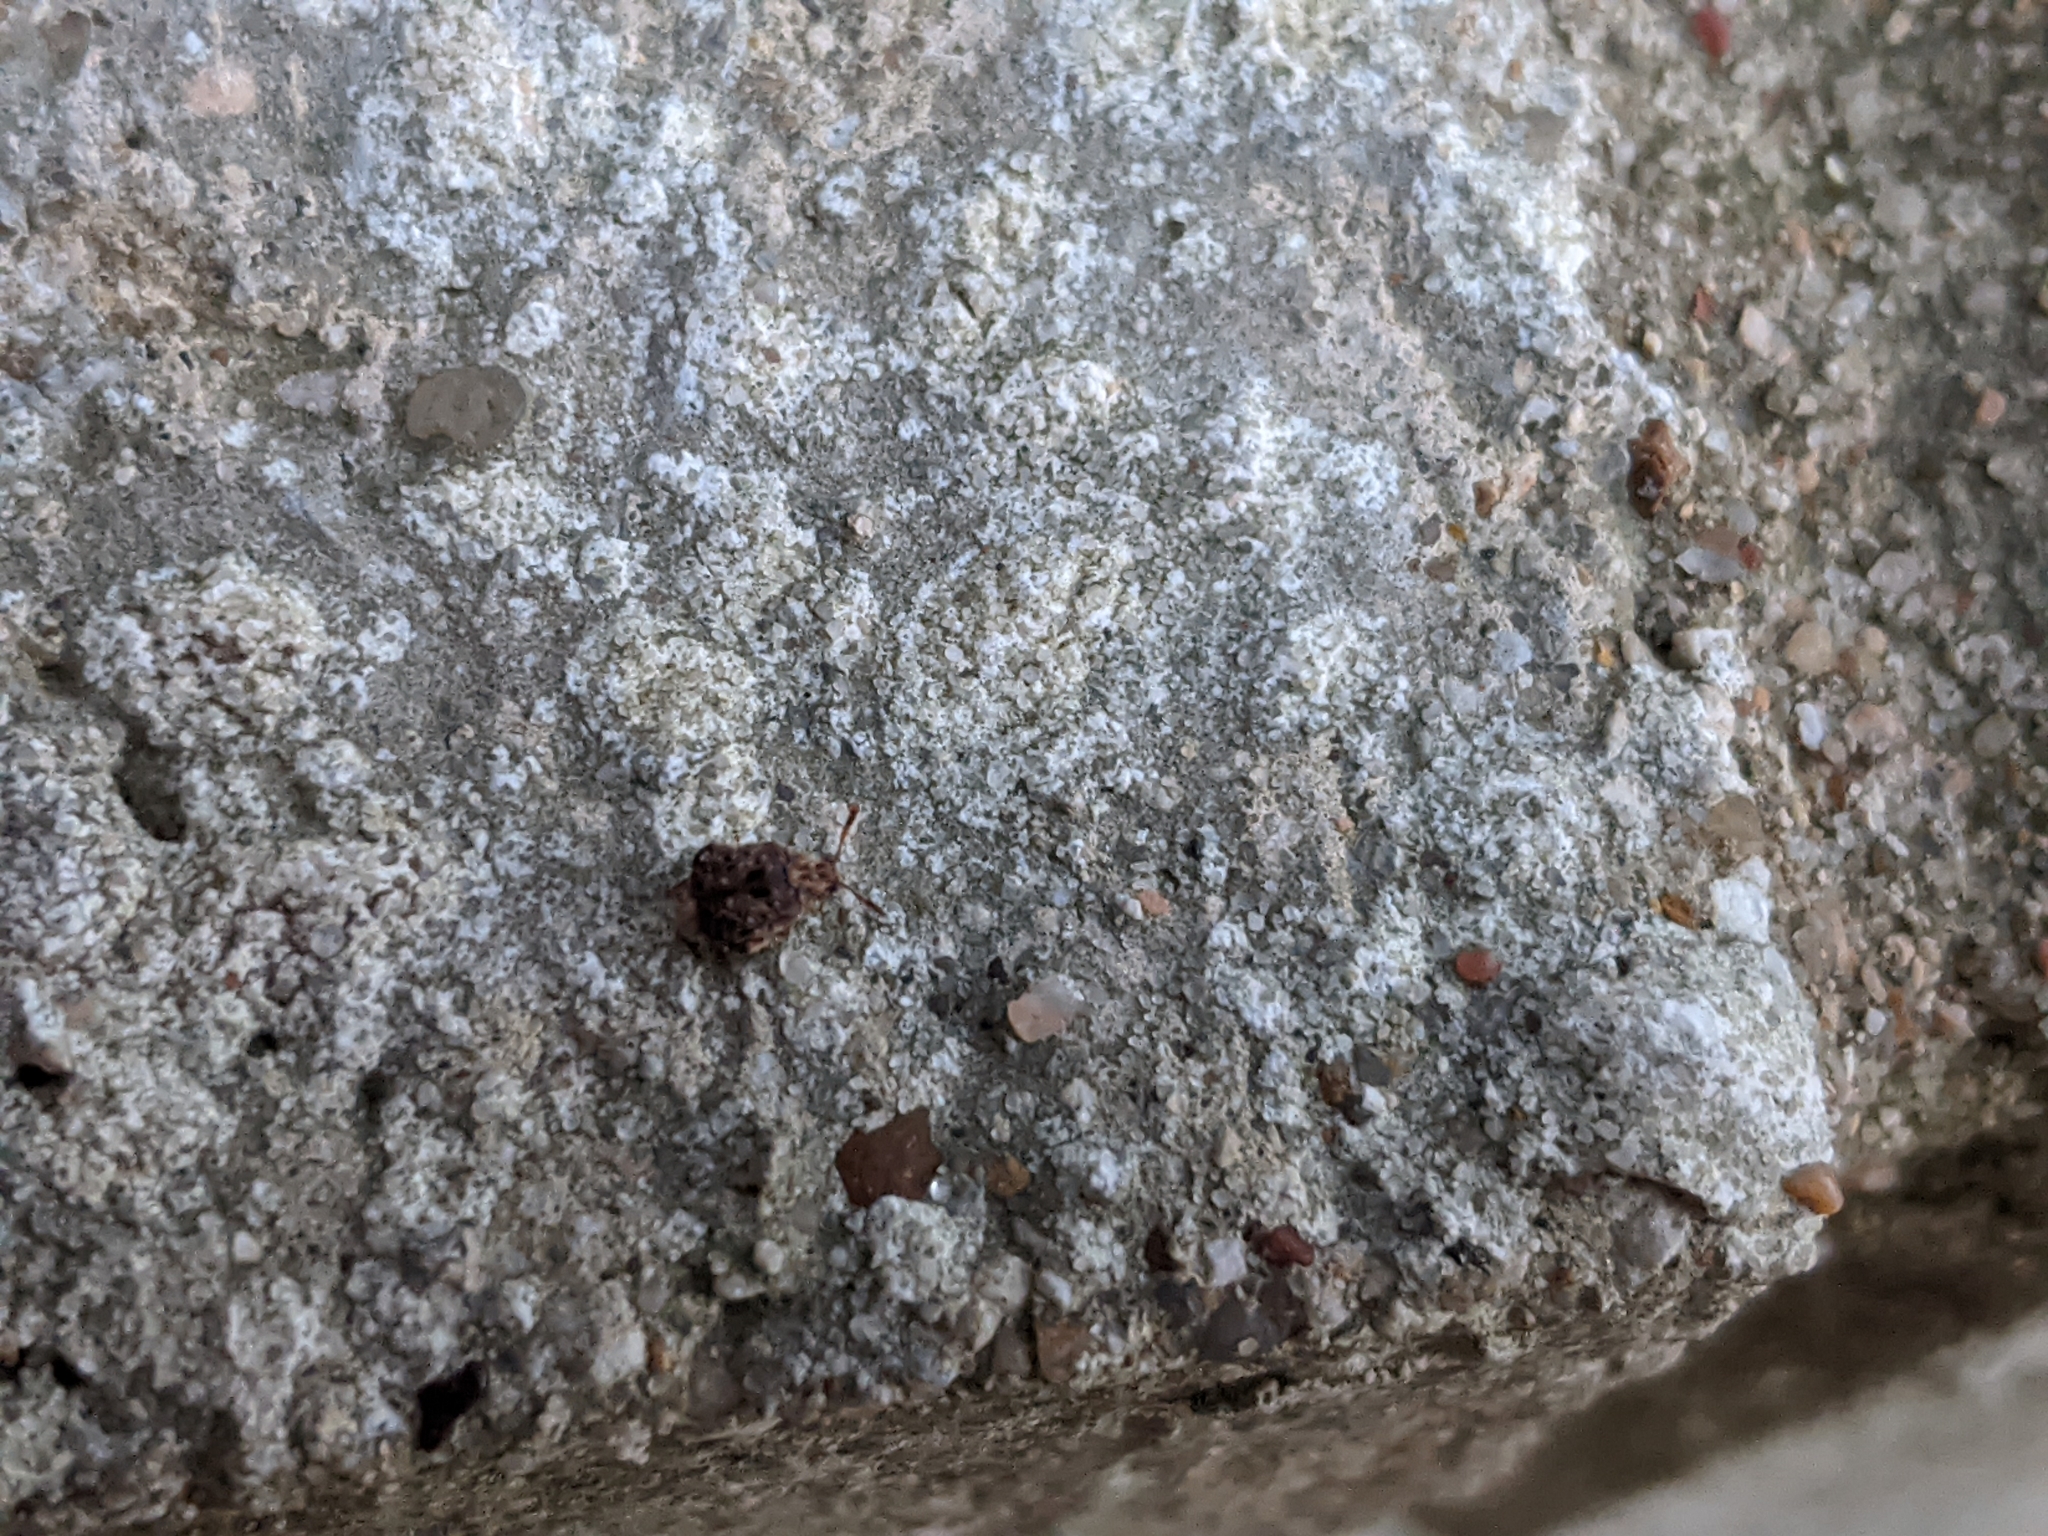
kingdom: Animalia
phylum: Arthropoda
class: Insecta
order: Coleoptera
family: Chrysomelidae
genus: Gibbobruchus
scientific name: Gibbobruchus mimus
